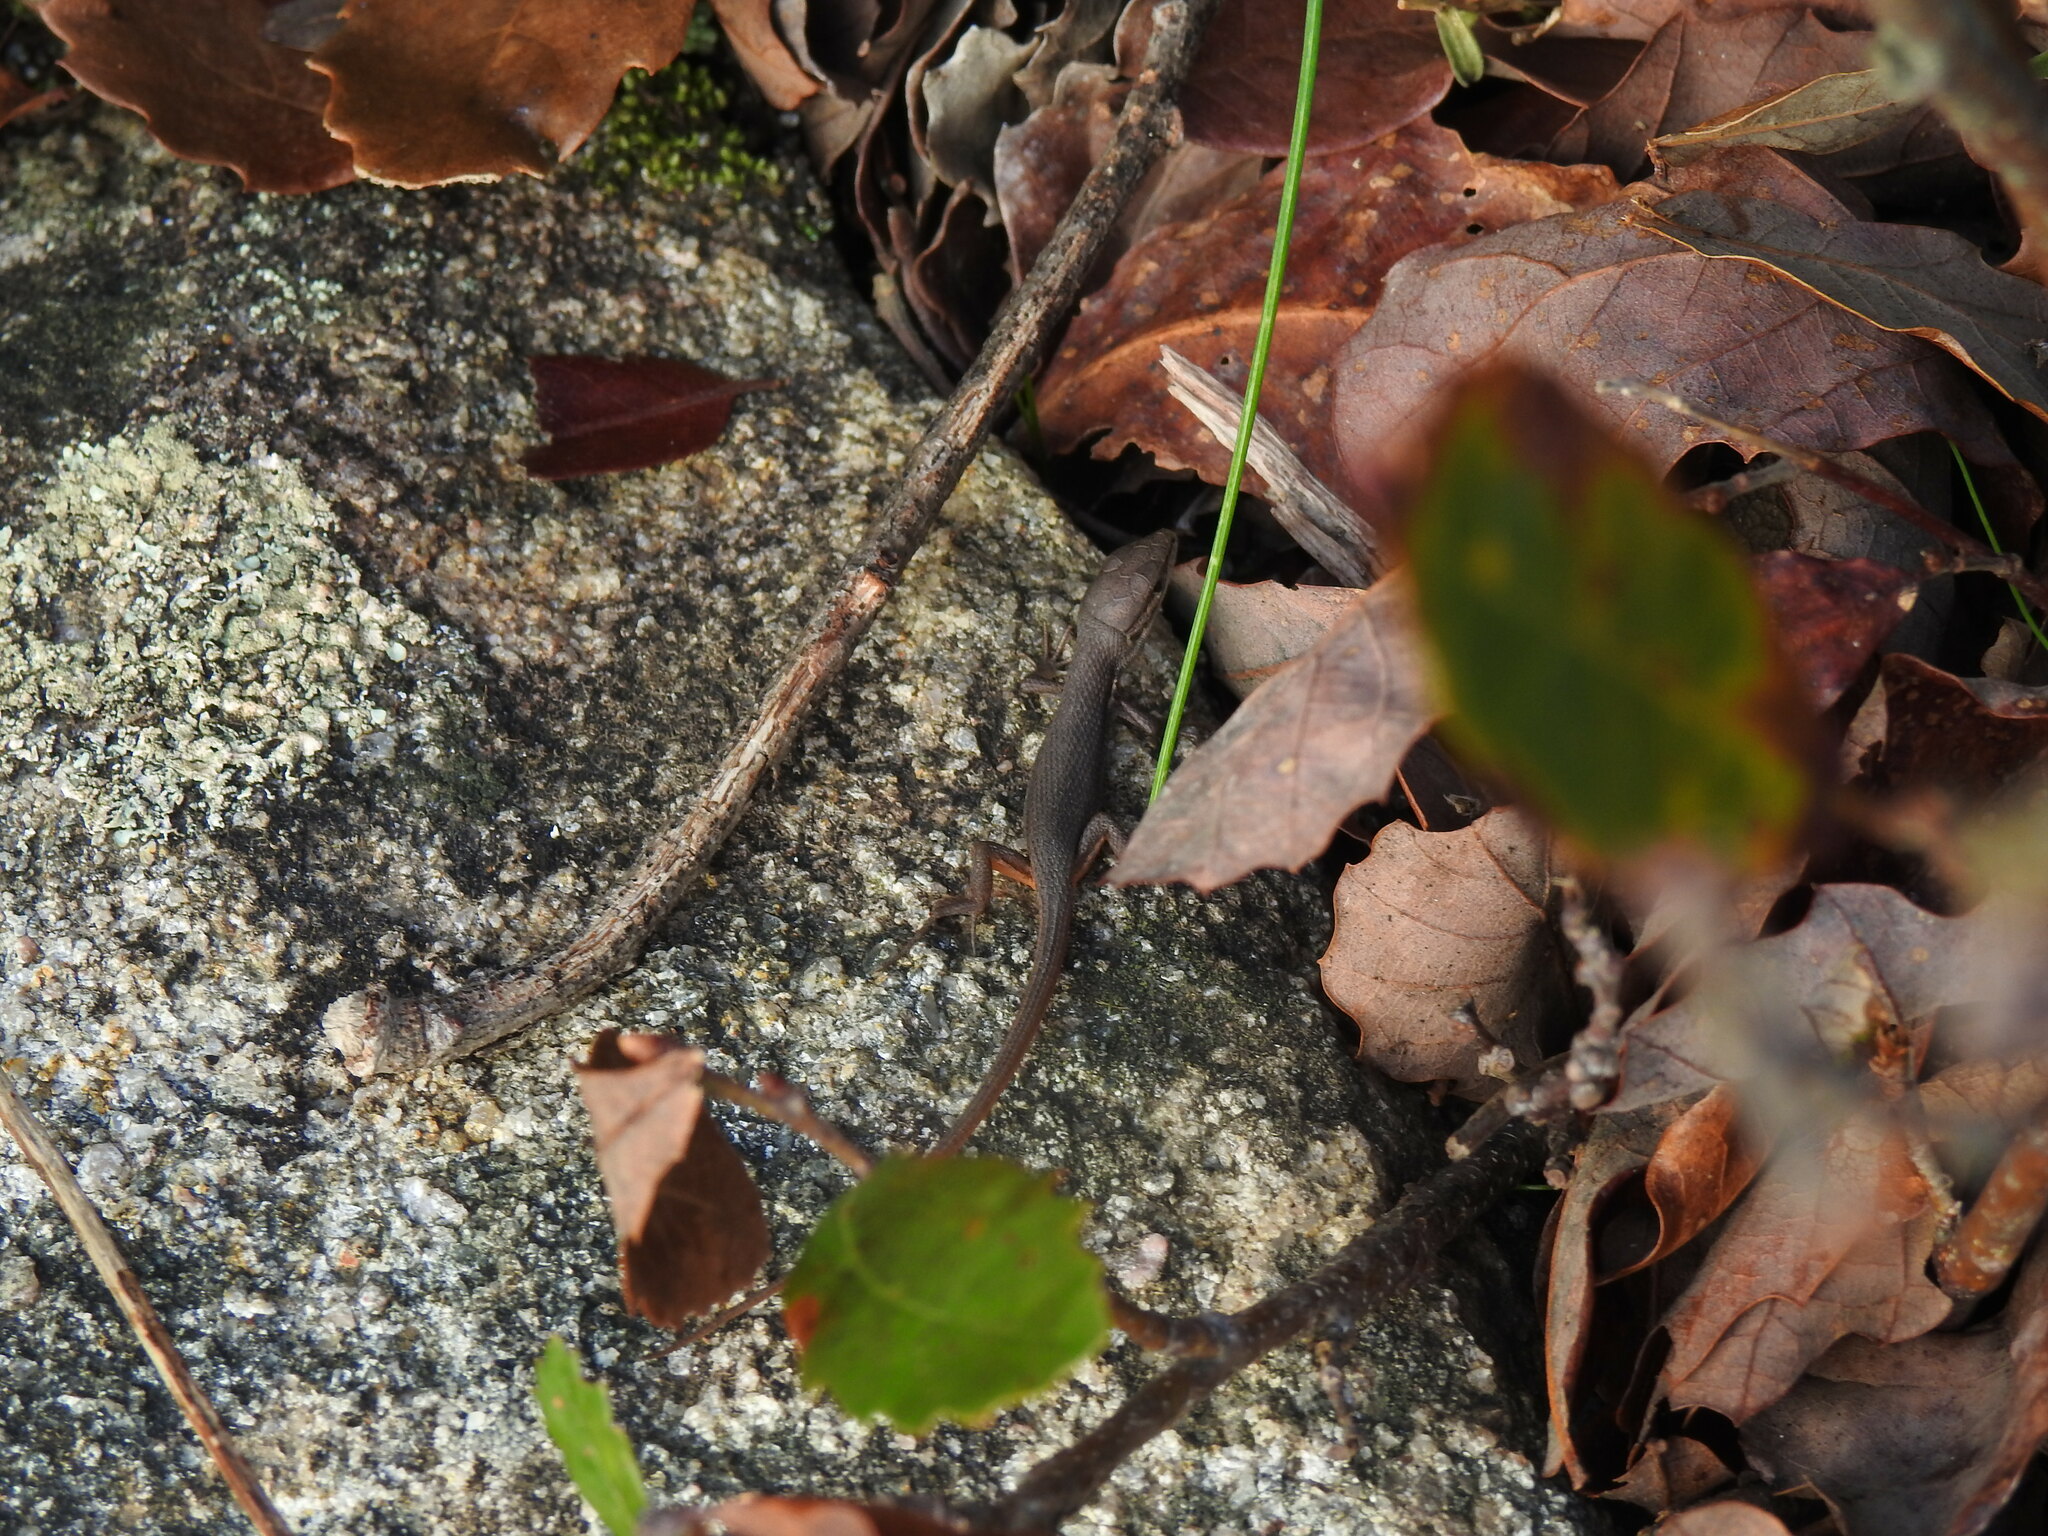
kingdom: Animalia
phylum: Chordata
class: Squamata
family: Lacertidae
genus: Psammodromus
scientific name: Psammodromus algirus
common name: Algerian psammodromus
